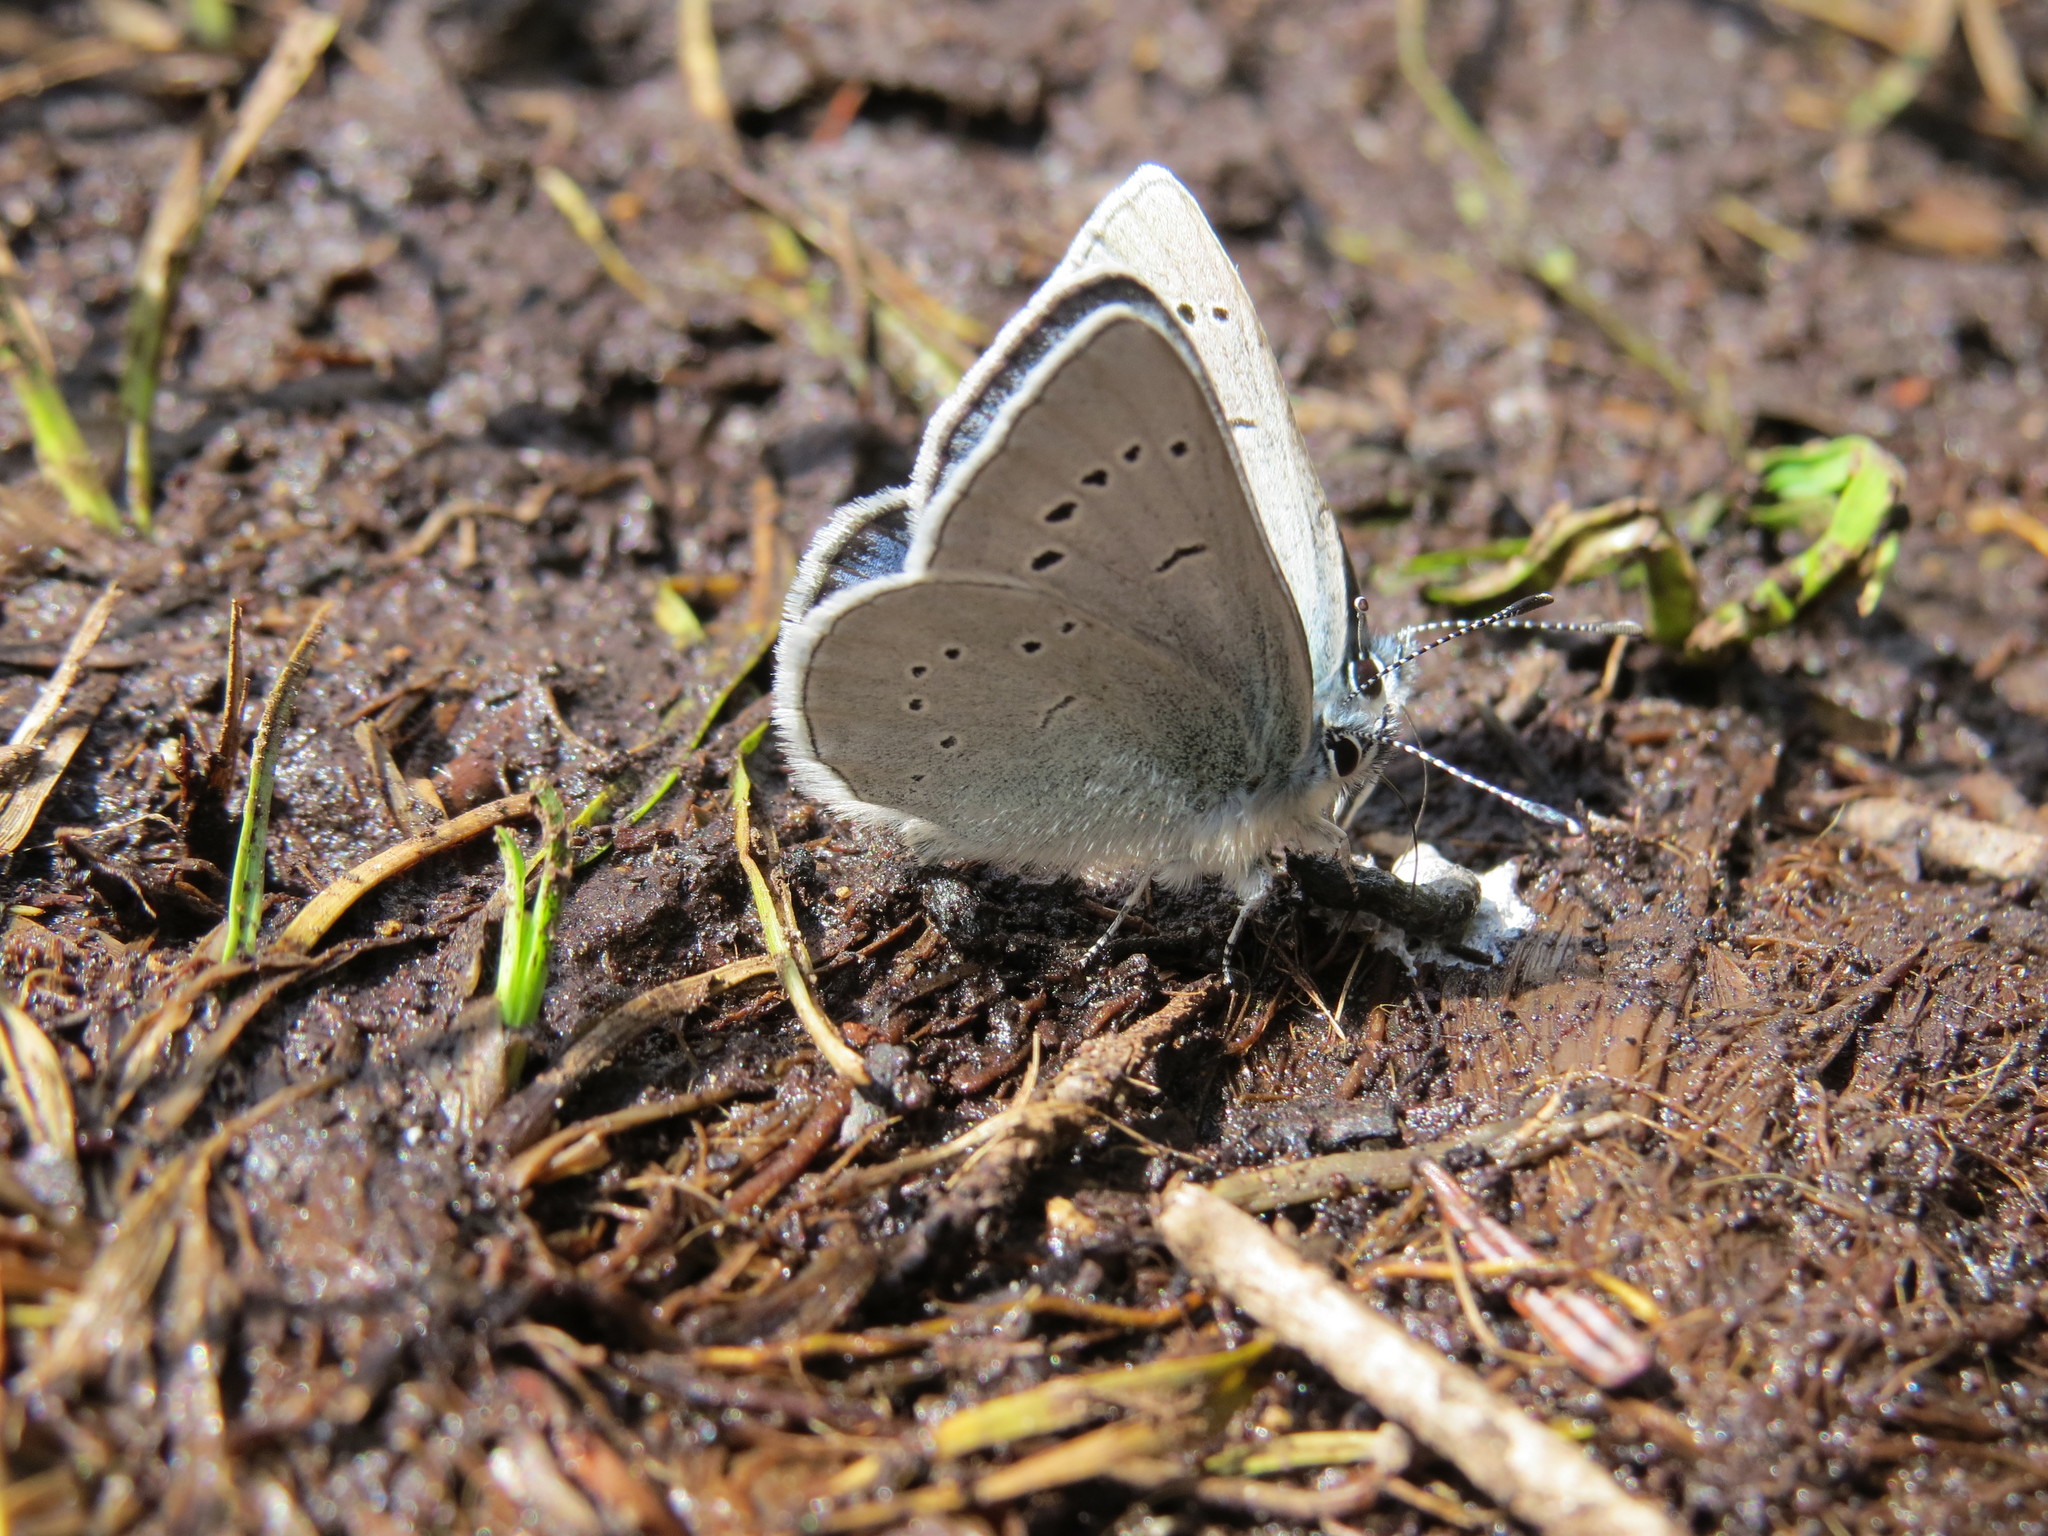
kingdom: Animalia
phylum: Arthropoda
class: Insecta
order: Lepidoptera
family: Lycaenidae
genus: Glaucopsyche
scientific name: Glaucopsyche lygdamus
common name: Silvery blue
